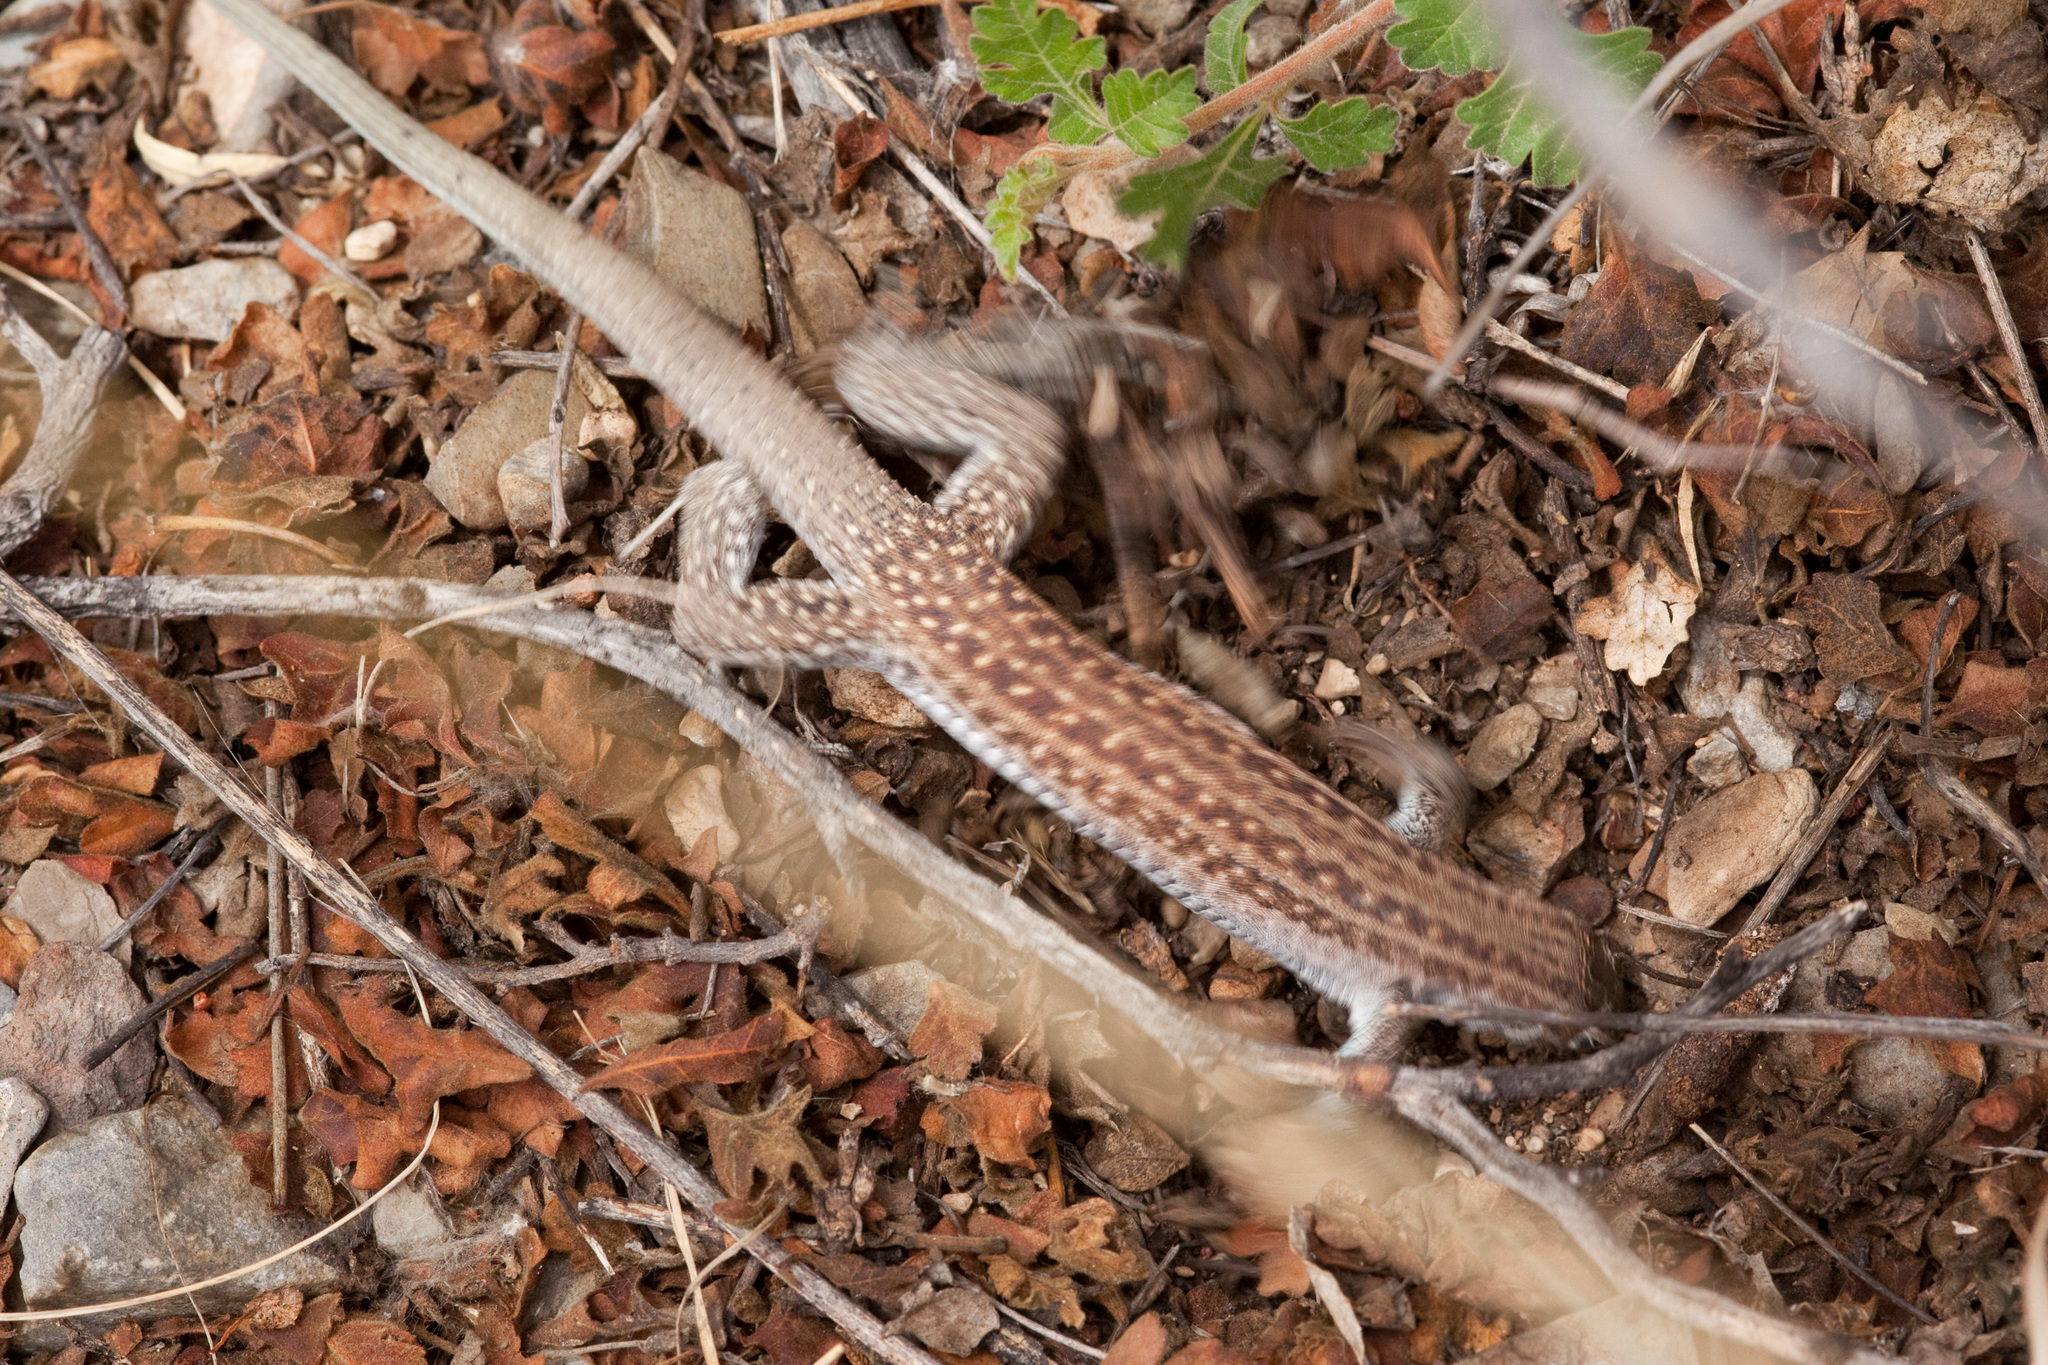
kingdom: Animalia
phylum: Chordata
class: Squamata
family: Teiidae
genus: Aspidoscelis
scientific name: Aspidoscelis exsanguis
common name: Chihuahuan spotted whiptail
